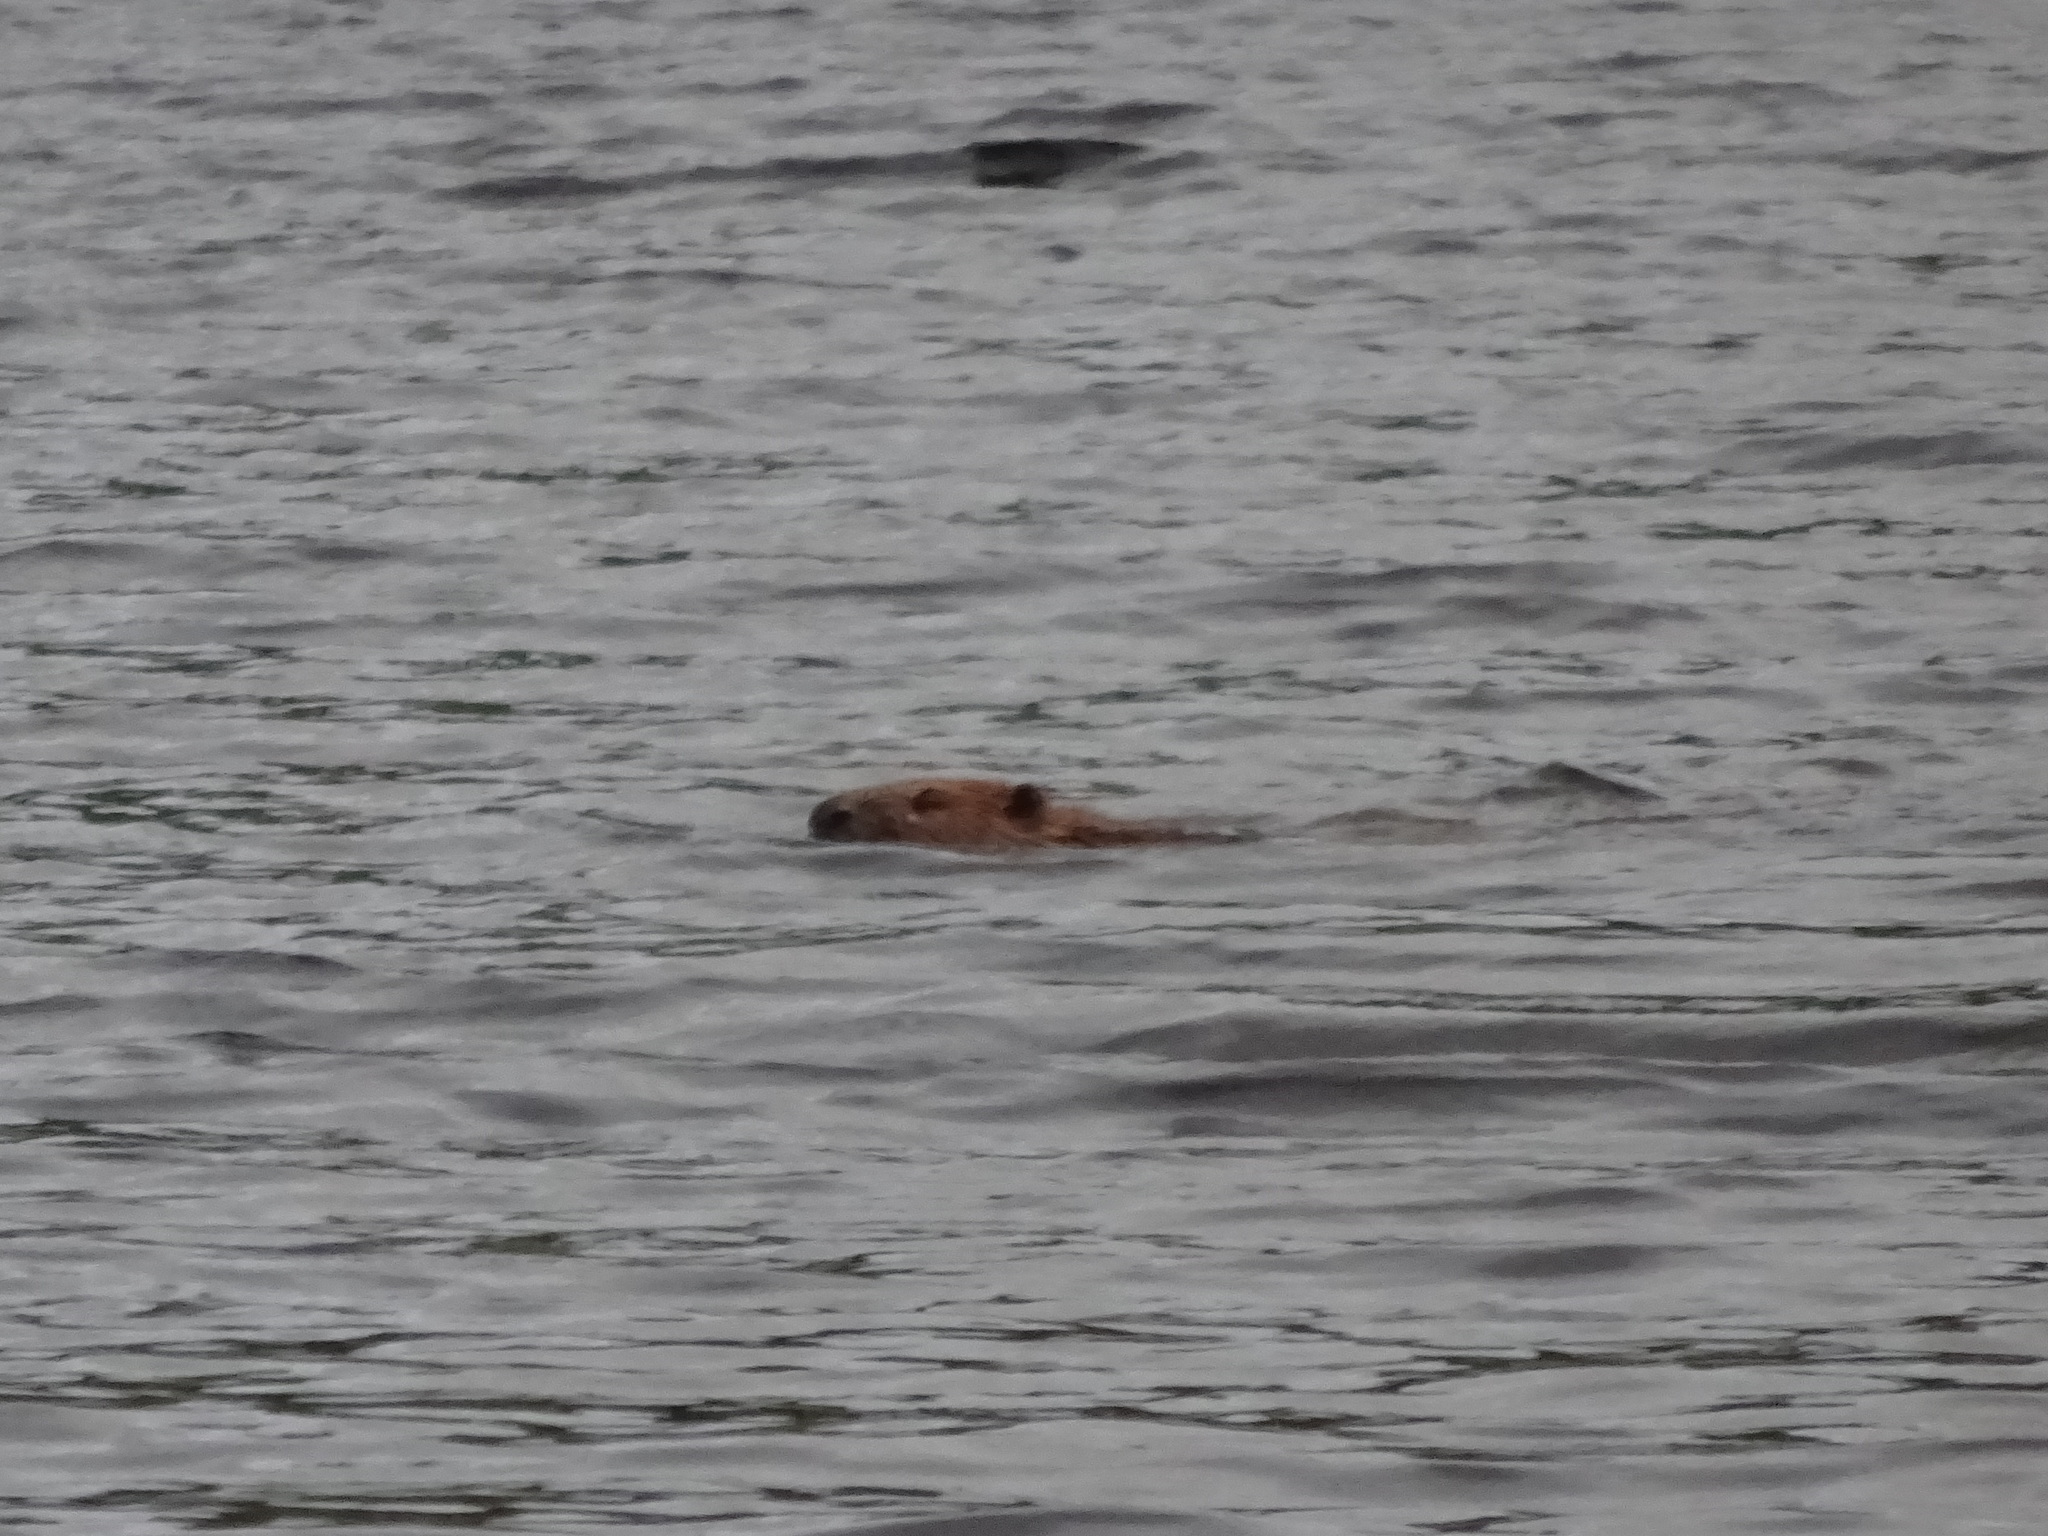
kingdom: Animalia
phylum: Chordata
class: Mammalia
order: Rodentia
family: Castoridae
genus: Castor
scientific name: Castor fiber
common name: Eurasian beaver
